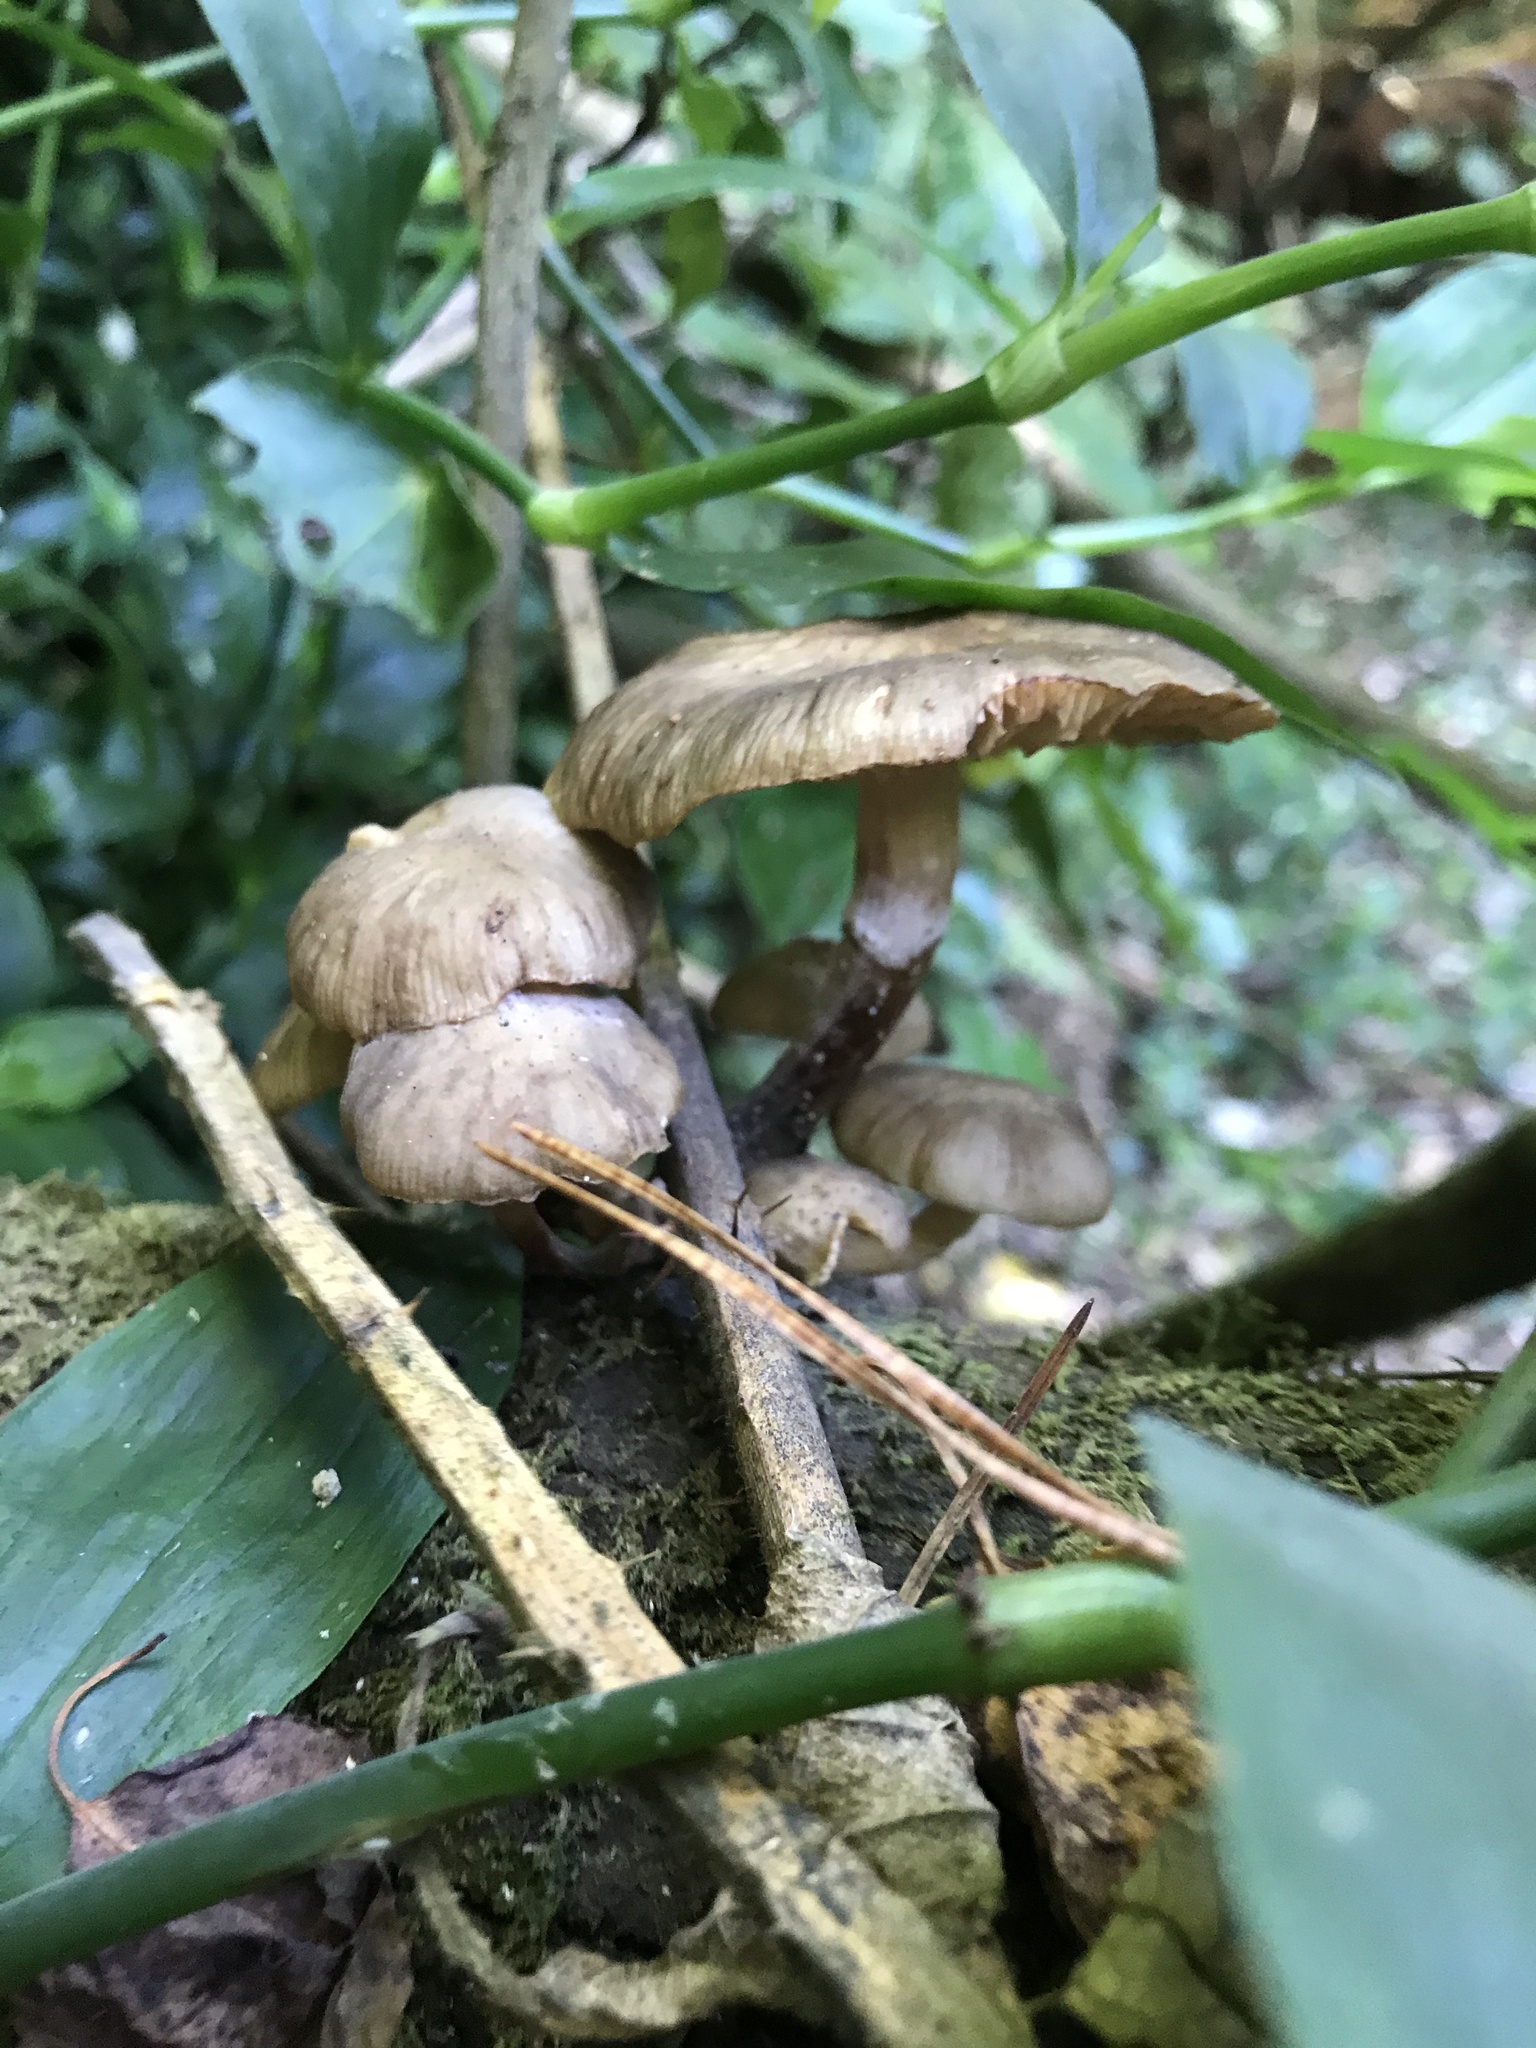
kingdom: Fungi
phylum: Basidiomycota
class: Agaricomycetes
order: Agaricales
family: Physalacriaceae
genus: Armillaria
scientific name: Armillaria novae-zelandiae
